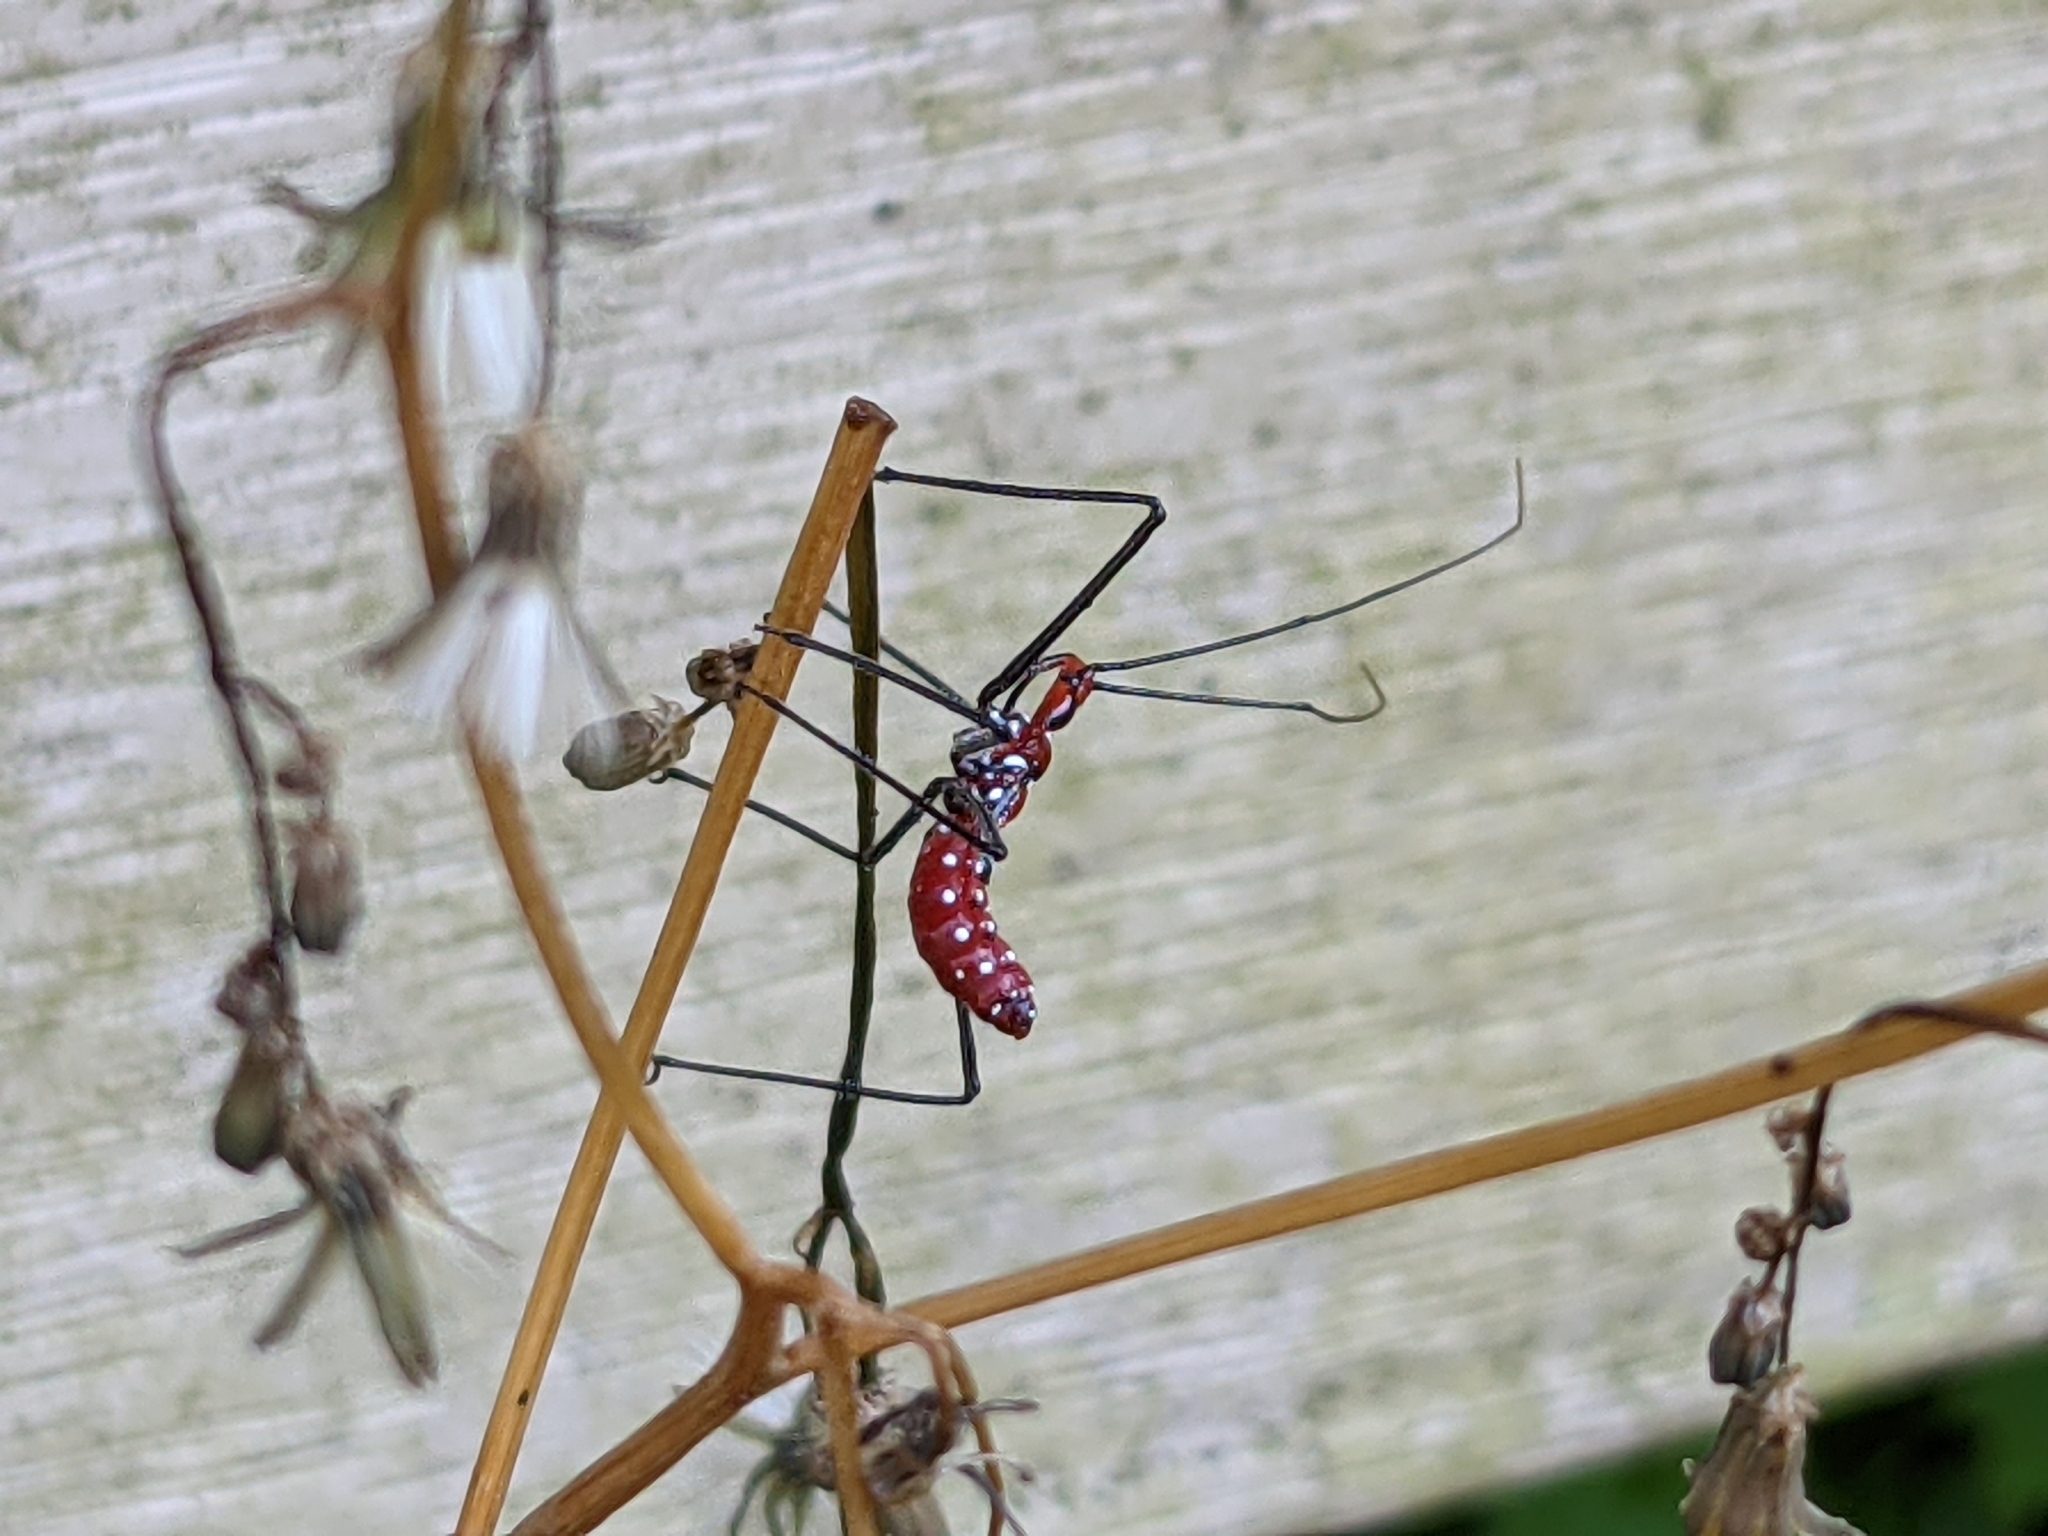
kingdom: Animalia
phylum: Arthropoda
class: Insecta
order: Hemiptera
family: Reduviidae
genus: Zelus
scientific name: Zelus longipes
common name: Milkweed assassin bug
